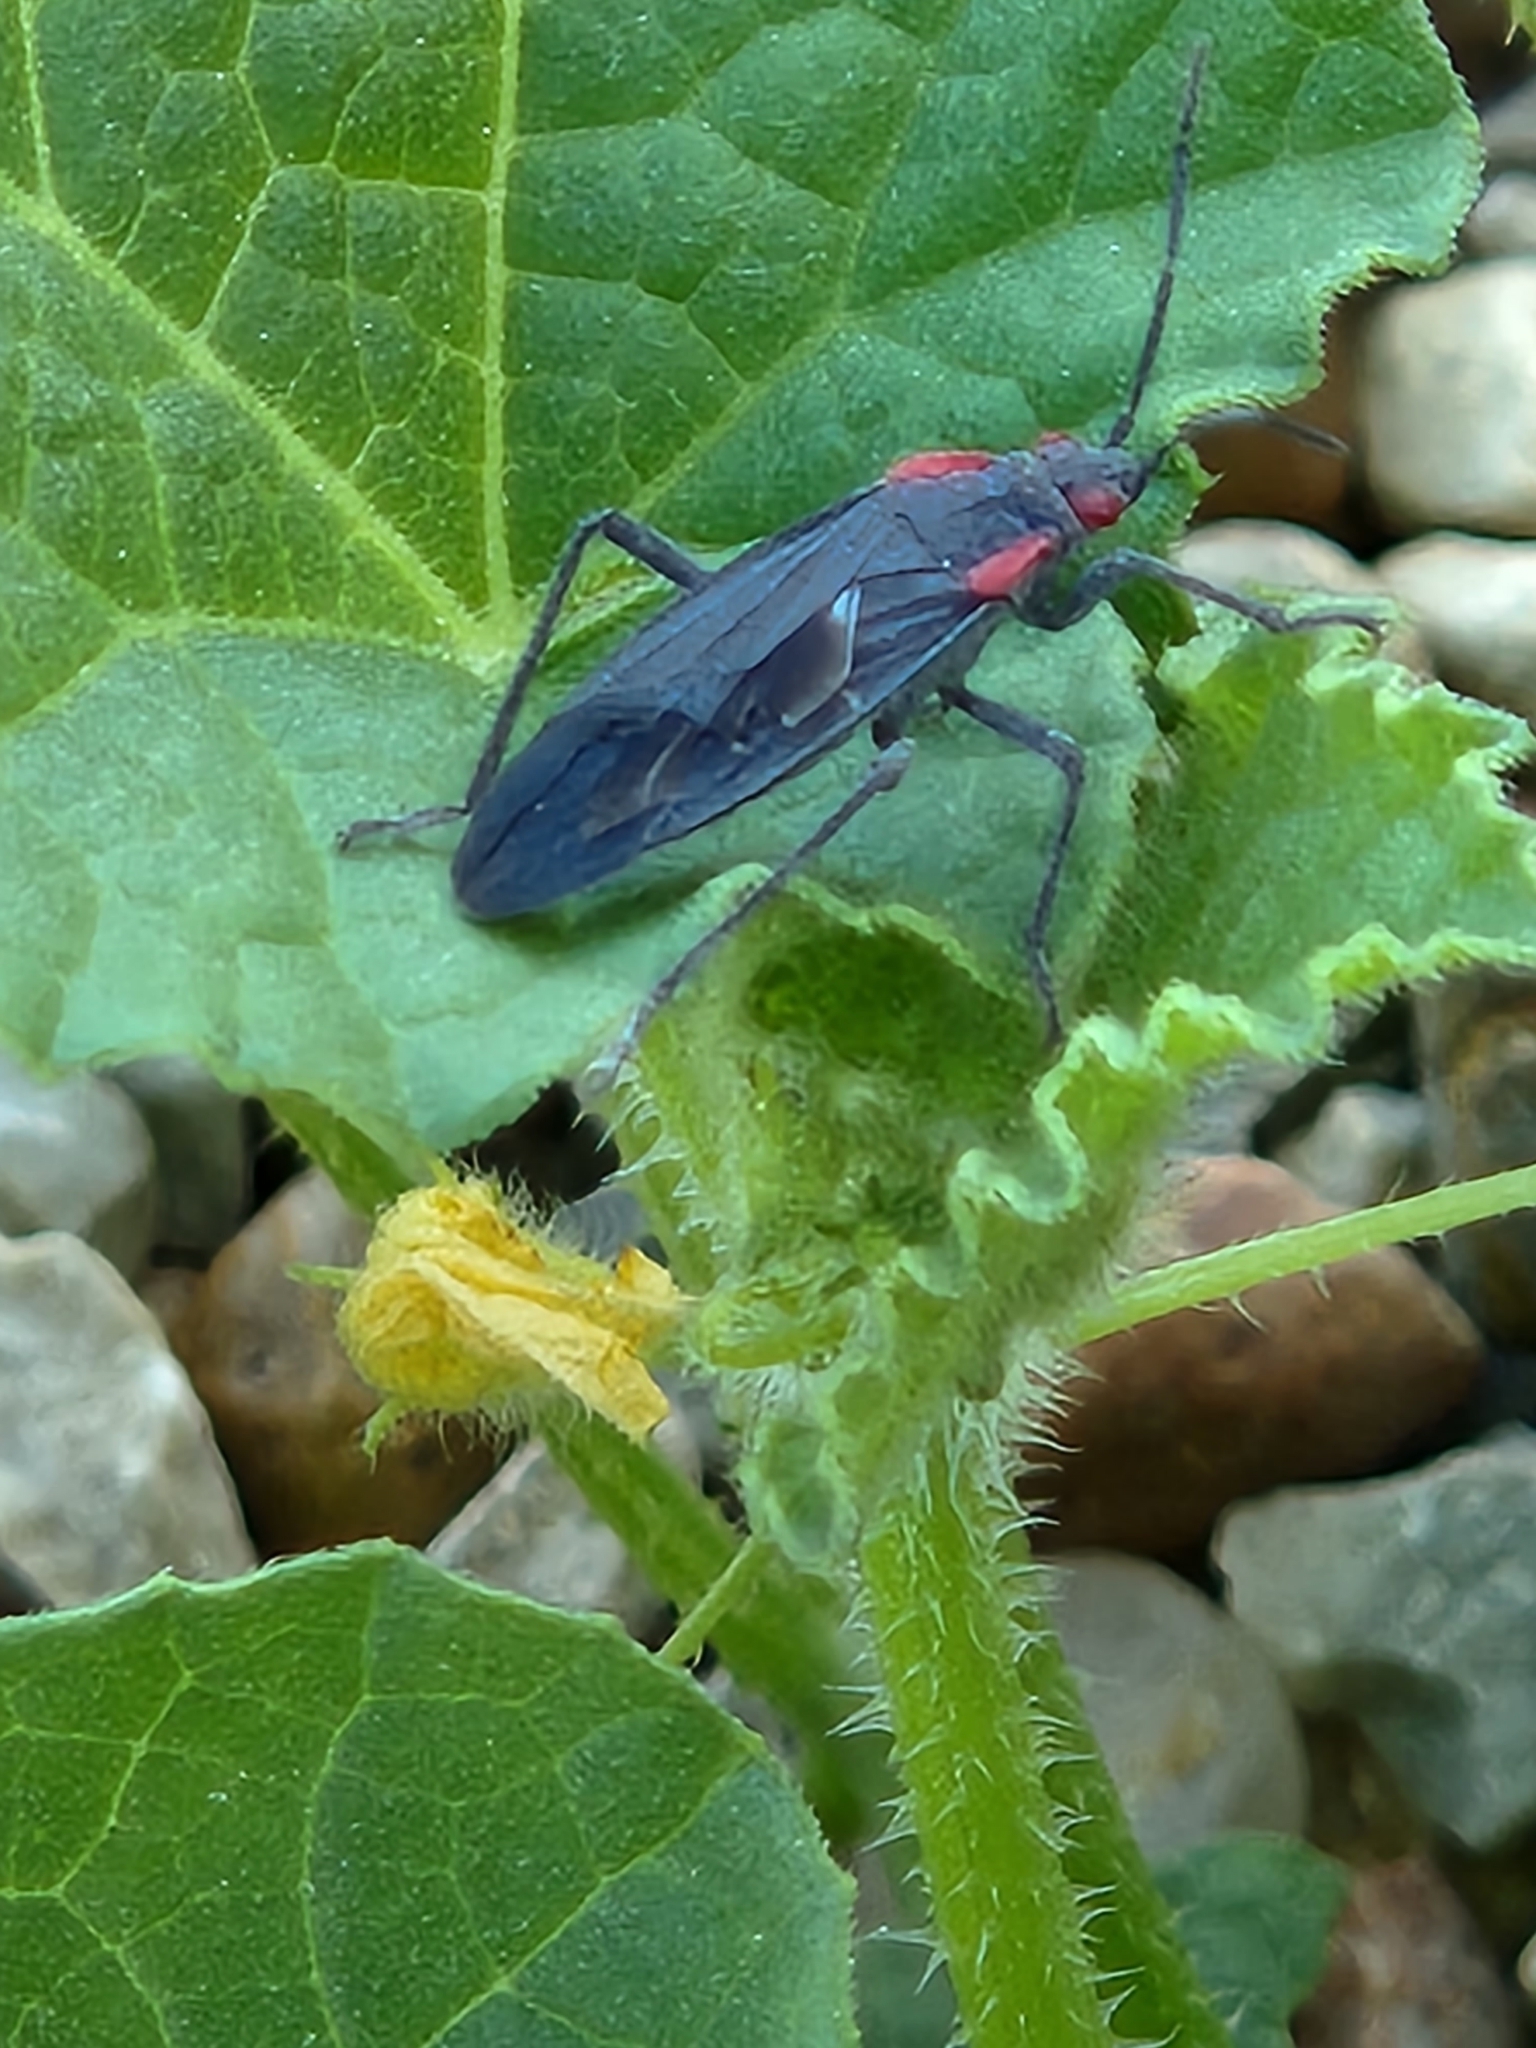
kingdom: Animalia
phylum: Arthropoda
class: Insecta
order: Hemiptera
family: Rhopalidae
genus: Jadera
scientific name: Jadera haematoloma
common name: Red-shouldered bug
